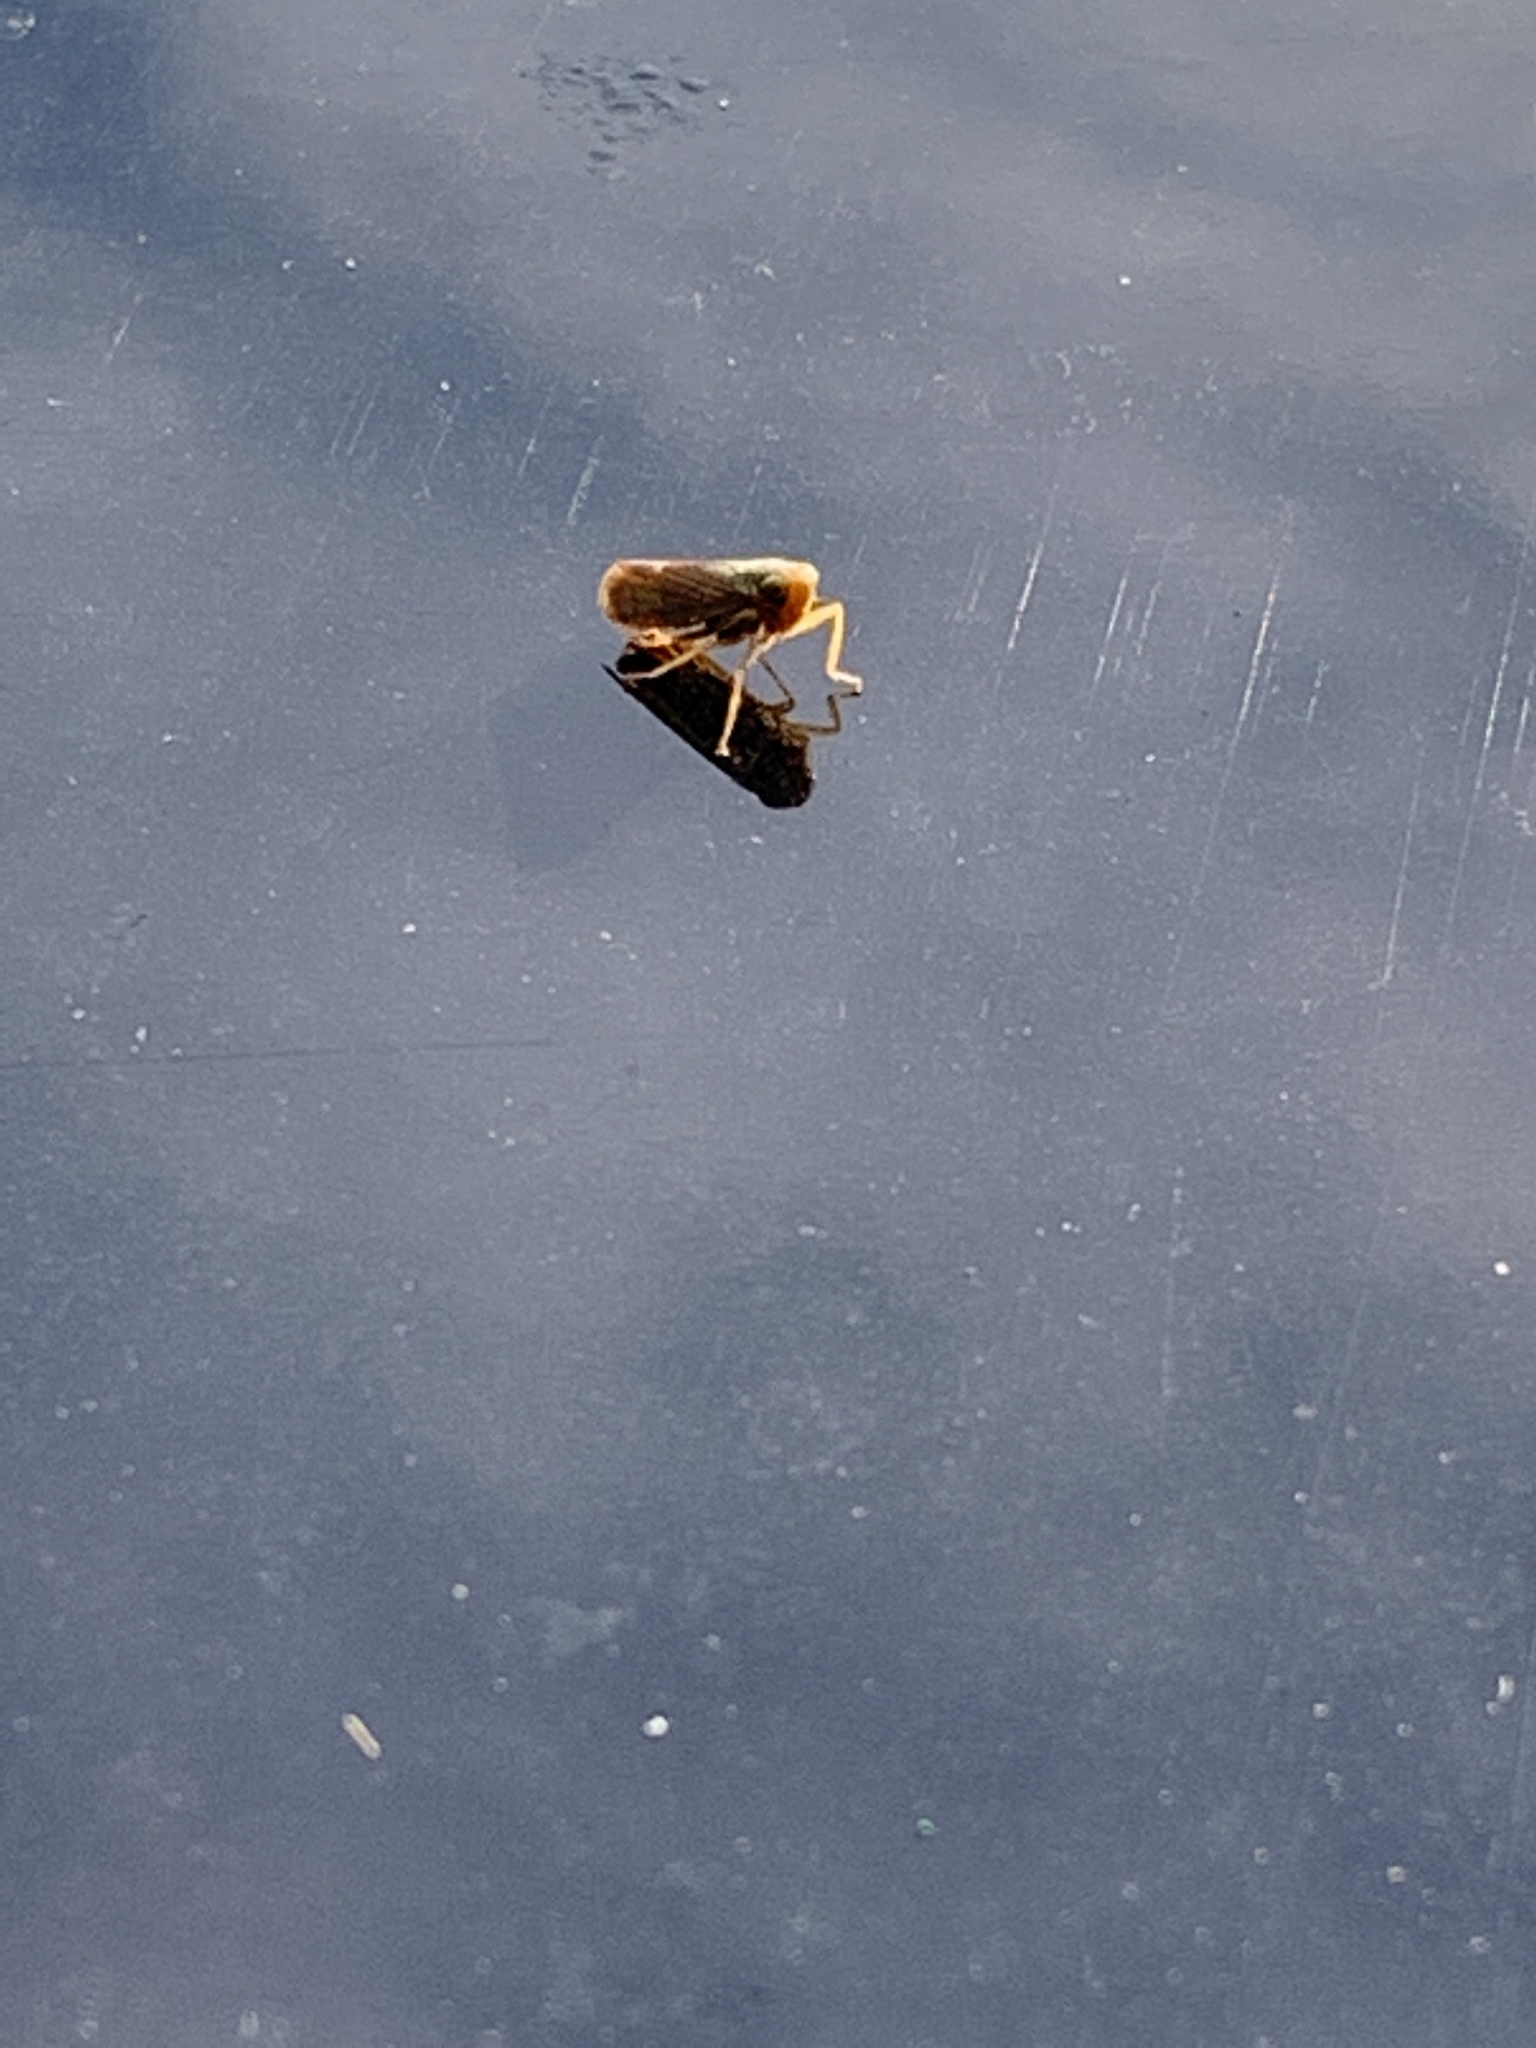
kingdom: Animalia
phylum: Arthropoda
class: Insecta
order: Hemiptera
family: Cicadellidae
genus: Jikradia
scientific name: Jikradia olitoria
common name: Coppery leafhopper
